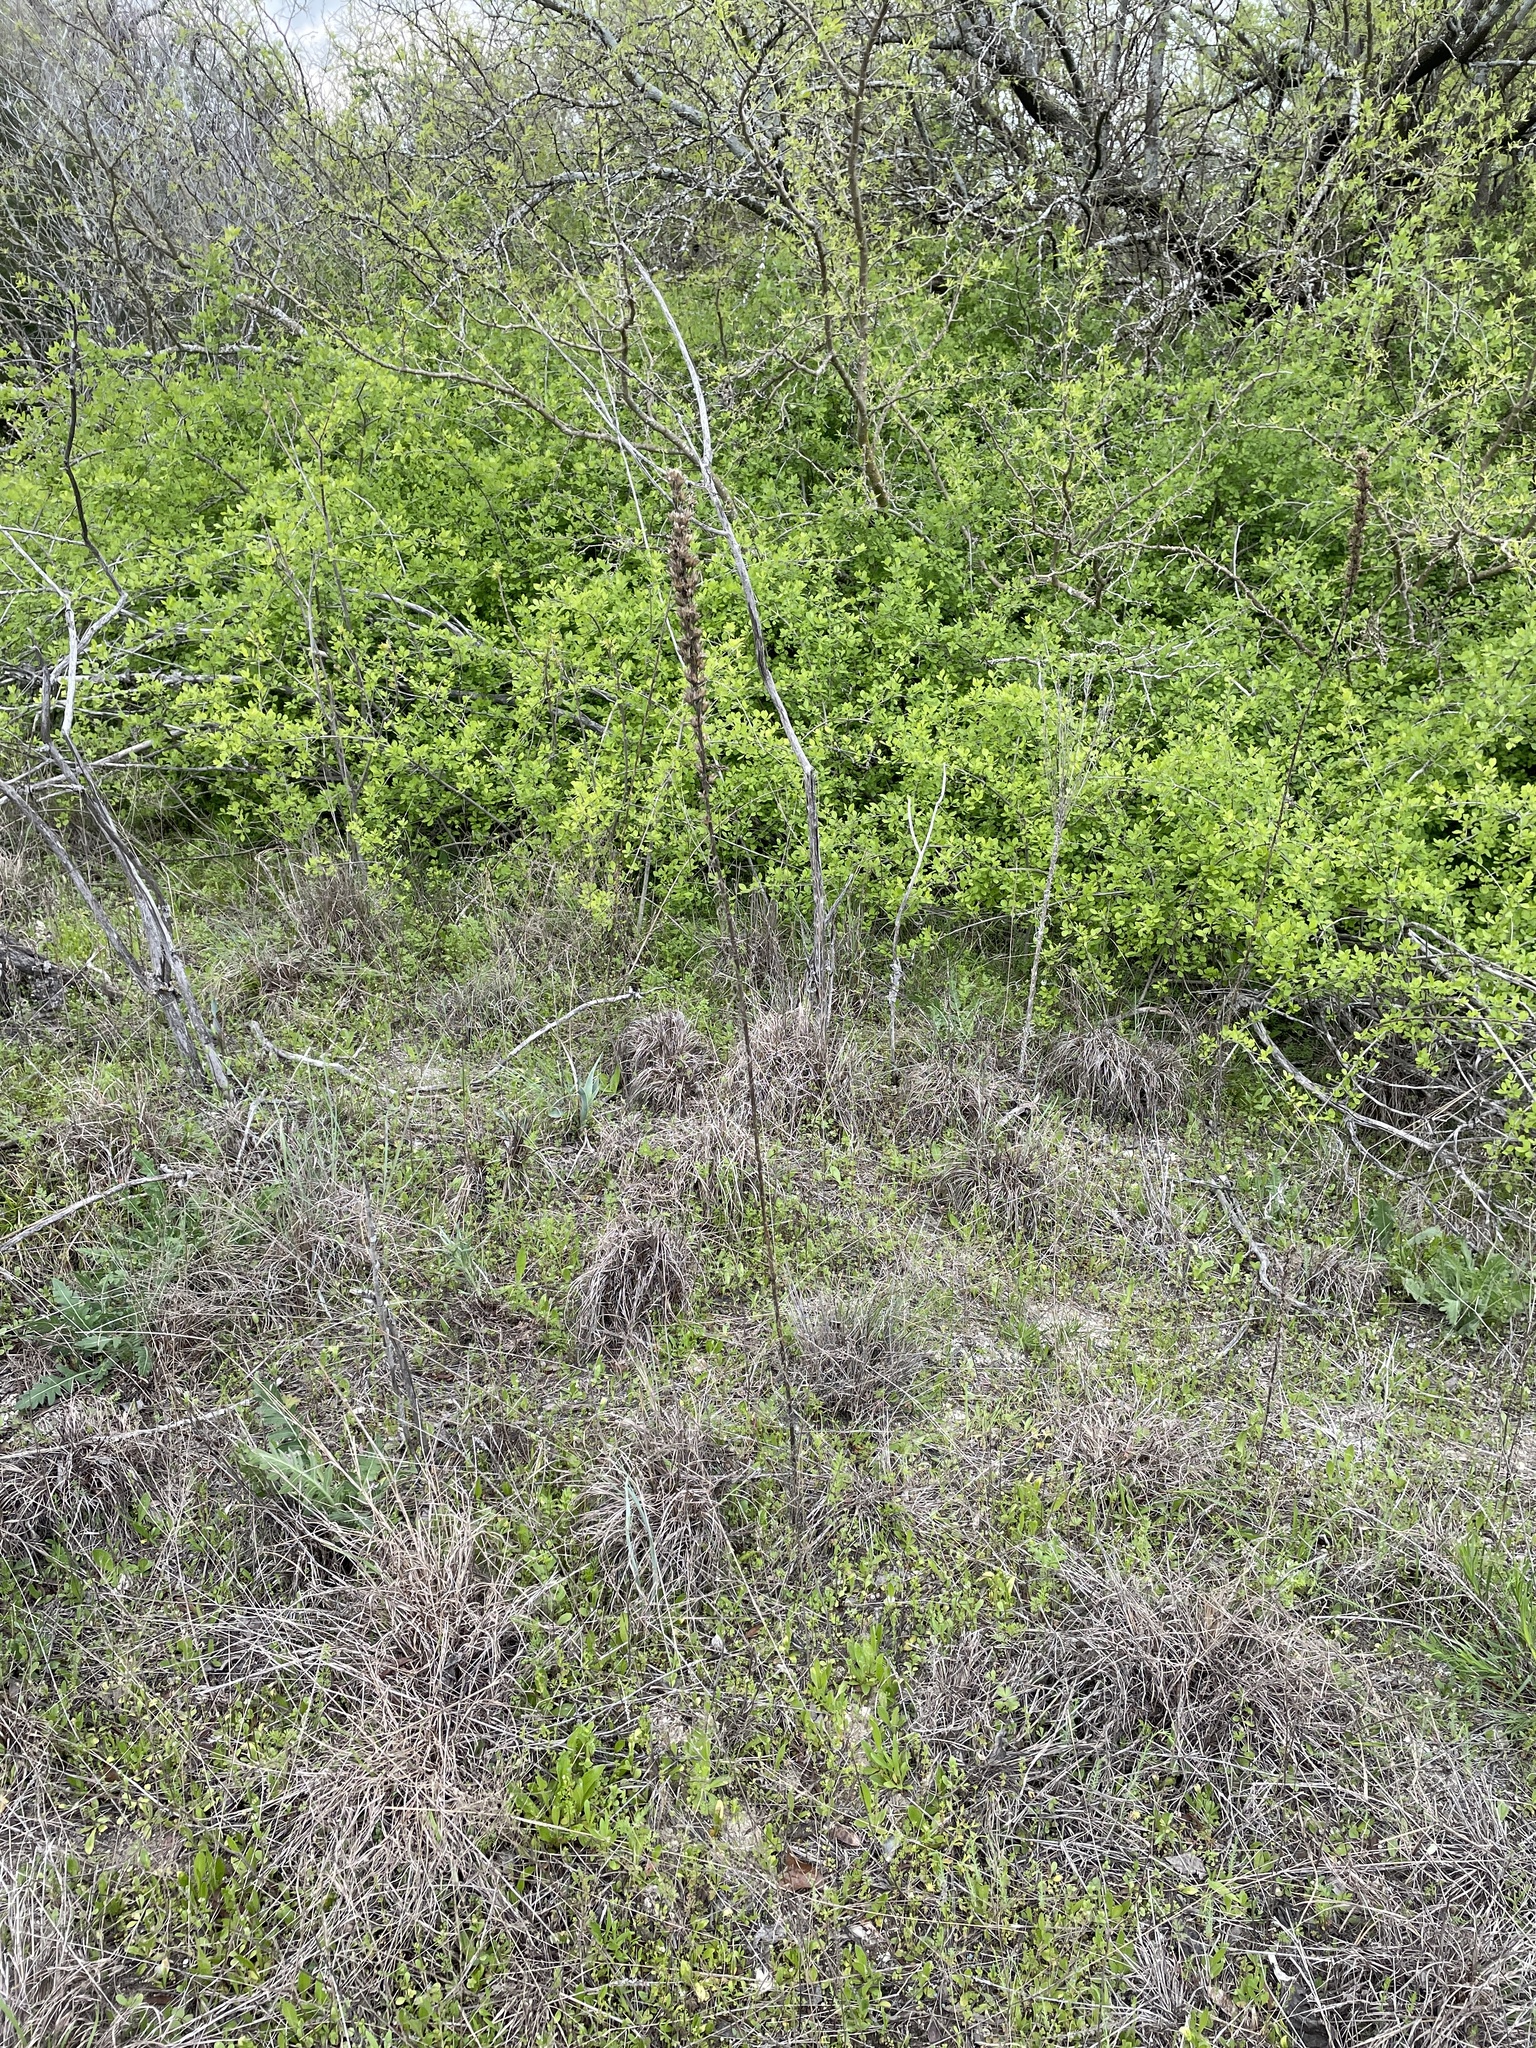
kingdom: Plantae
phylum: Tracheophyta
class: Magnoliopsida
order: Ericales
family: Polemoniaceae
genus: Ipomopsis
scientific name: Ipomopsis rubra
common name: Skyrocket
